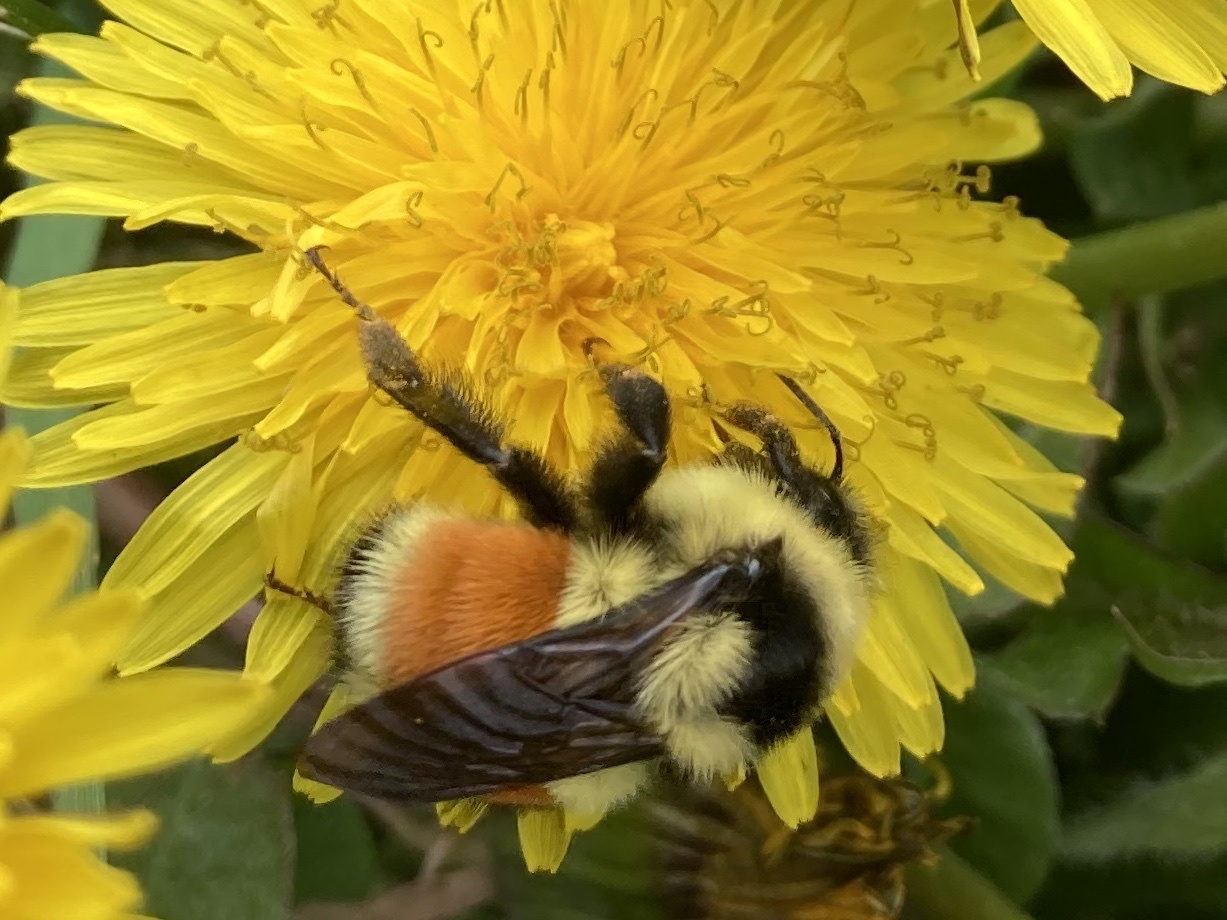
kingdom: Animalia
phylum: Arthropoda
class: Insecta
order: Hymenoptera
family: Apidae
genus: Bombus
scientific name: Bombus ternarius
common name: Tri-colored bumble bee
